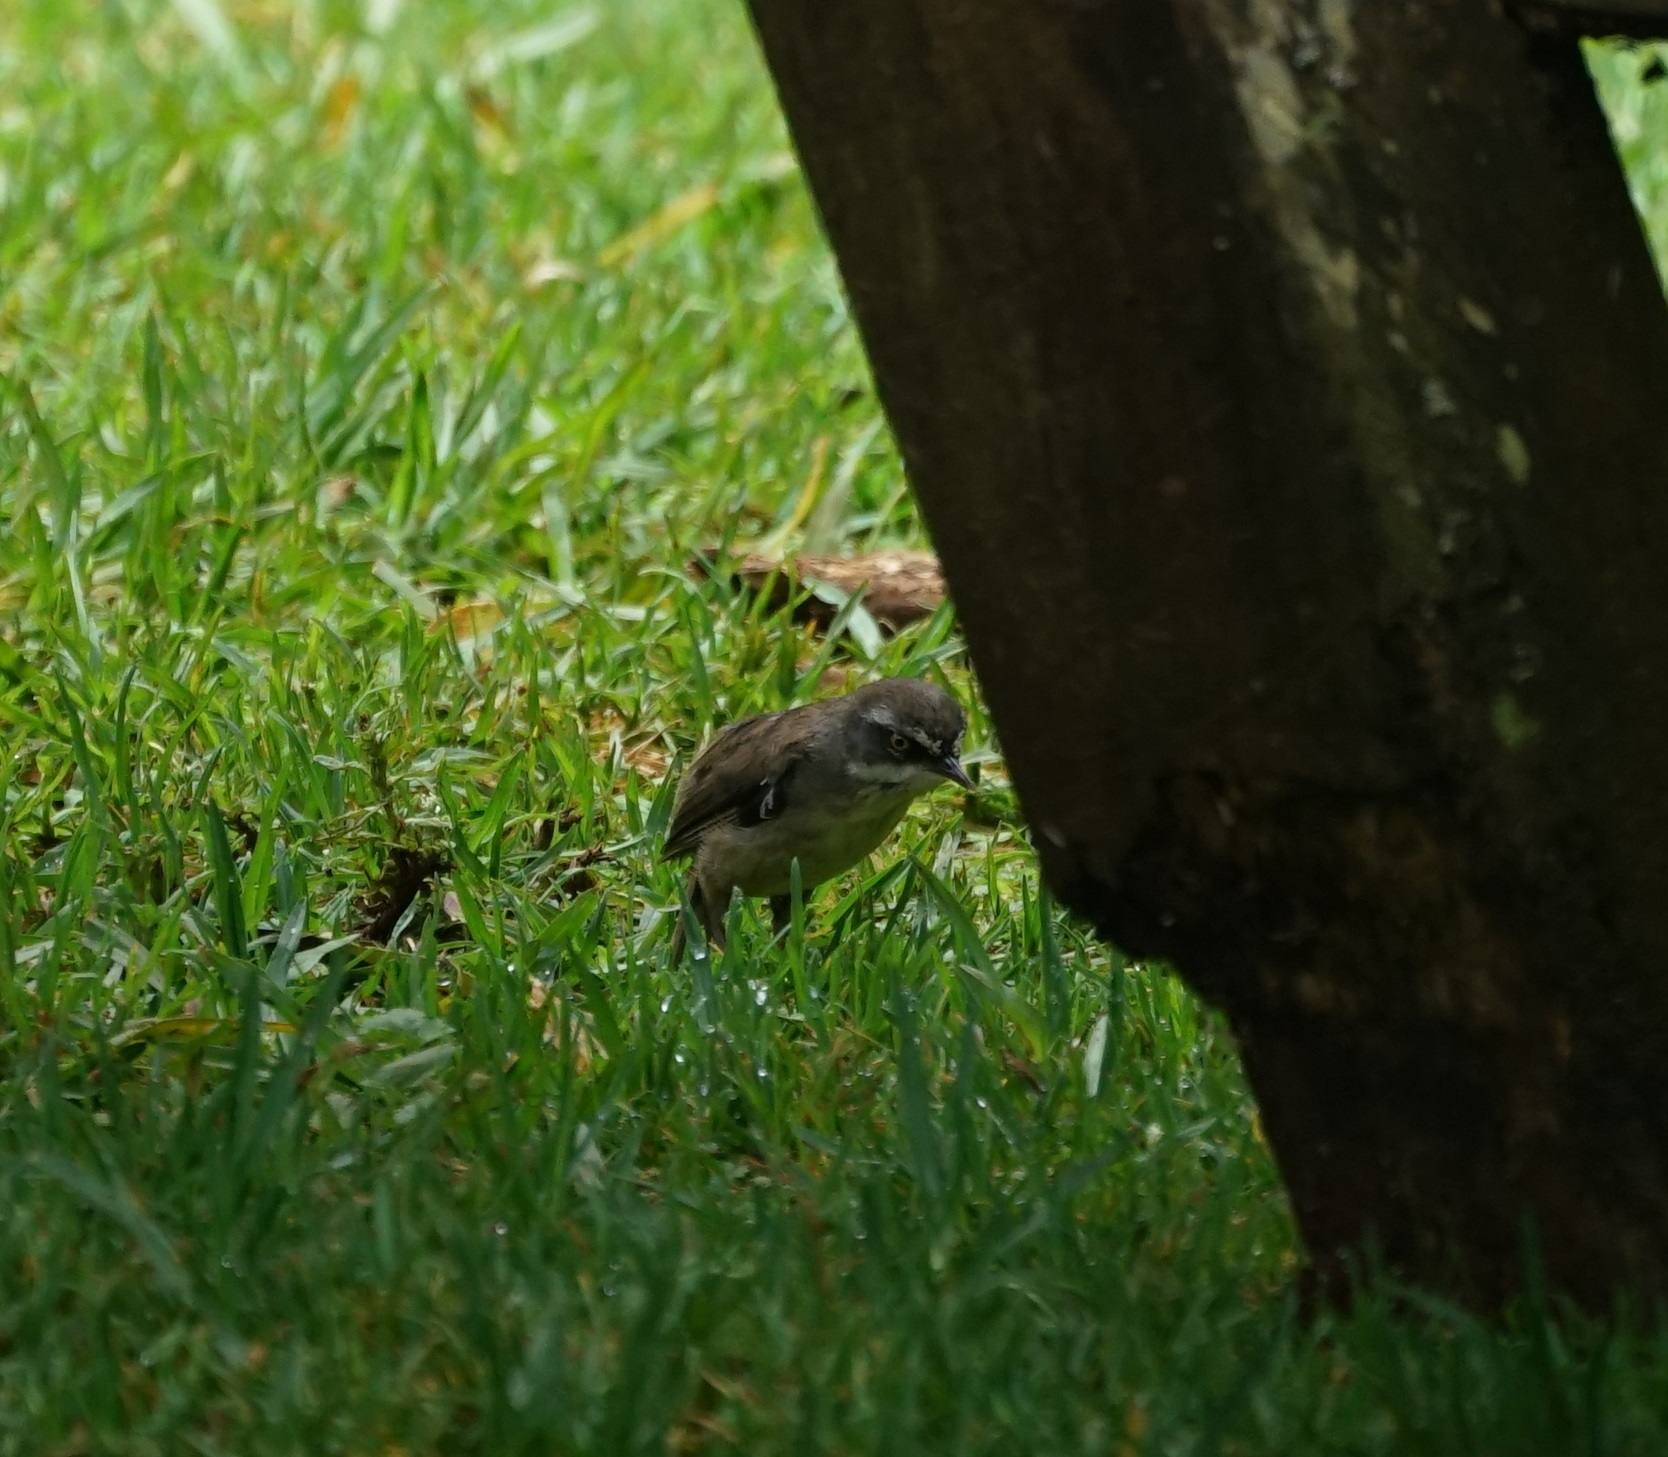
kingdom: Animalia
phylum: Chordata
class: Aves
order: Passeriformes
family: Acanthizidae
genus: Sericornis
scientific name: Sericornis frontalis
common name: White-browed scrubwren
